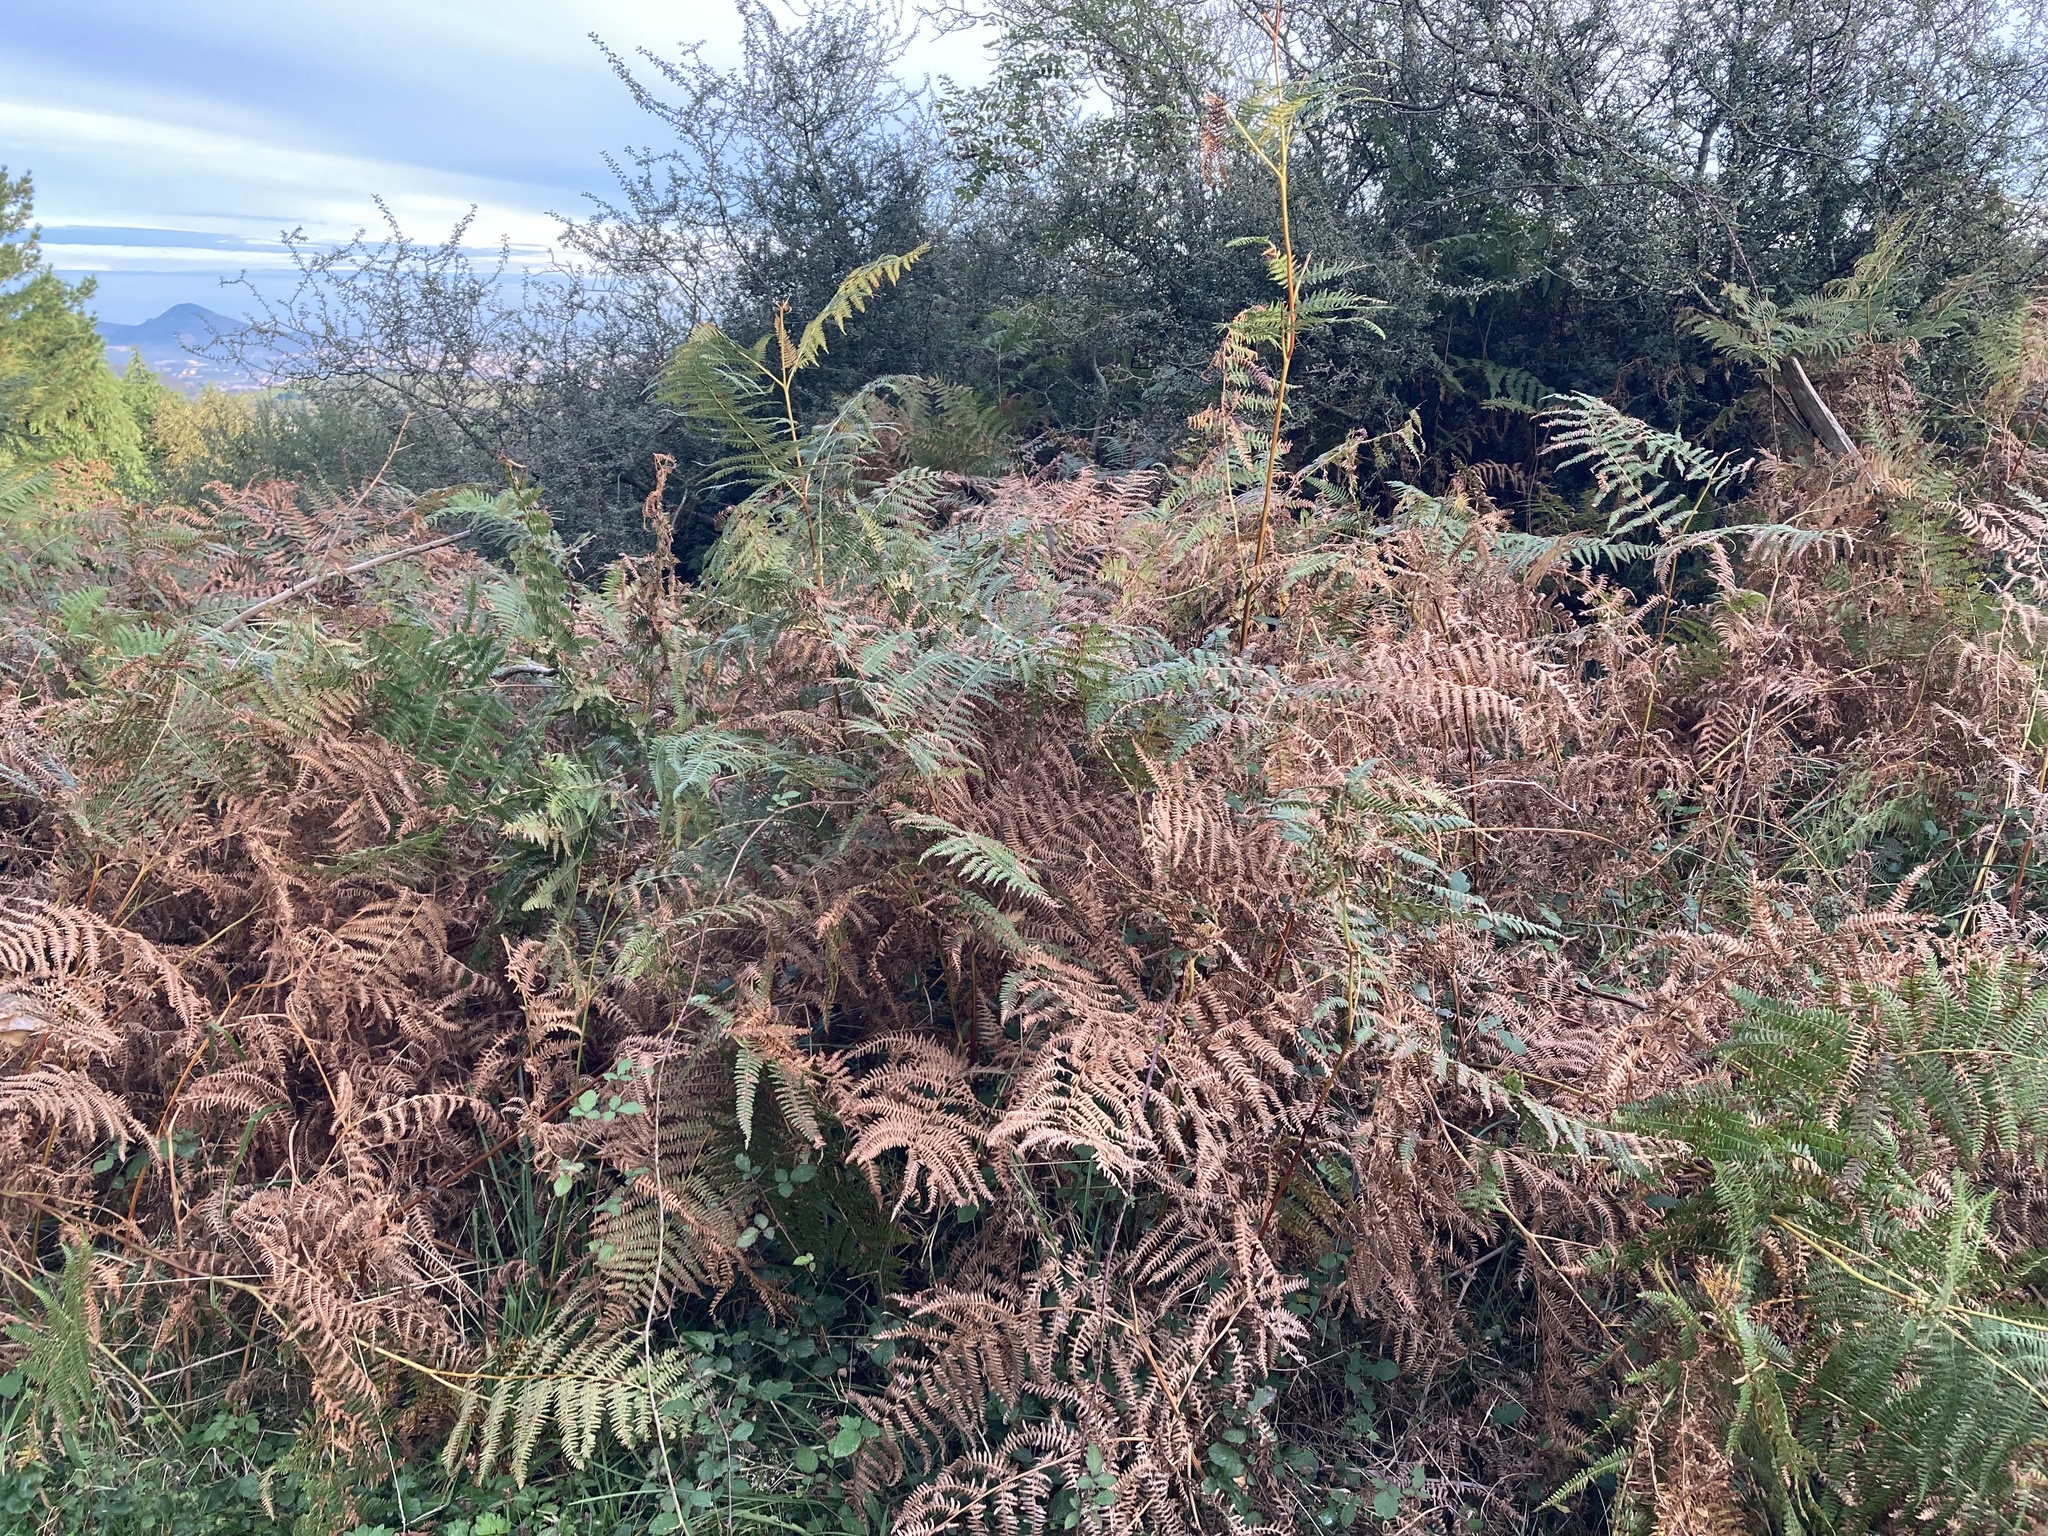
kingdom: Plantae
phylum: Tracheophyta
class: Polypodiopsida
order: Polypodiales
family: Dennstaedtiaceae
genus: Pteridium
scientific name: Pteridium aquilinum
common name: Bracken
